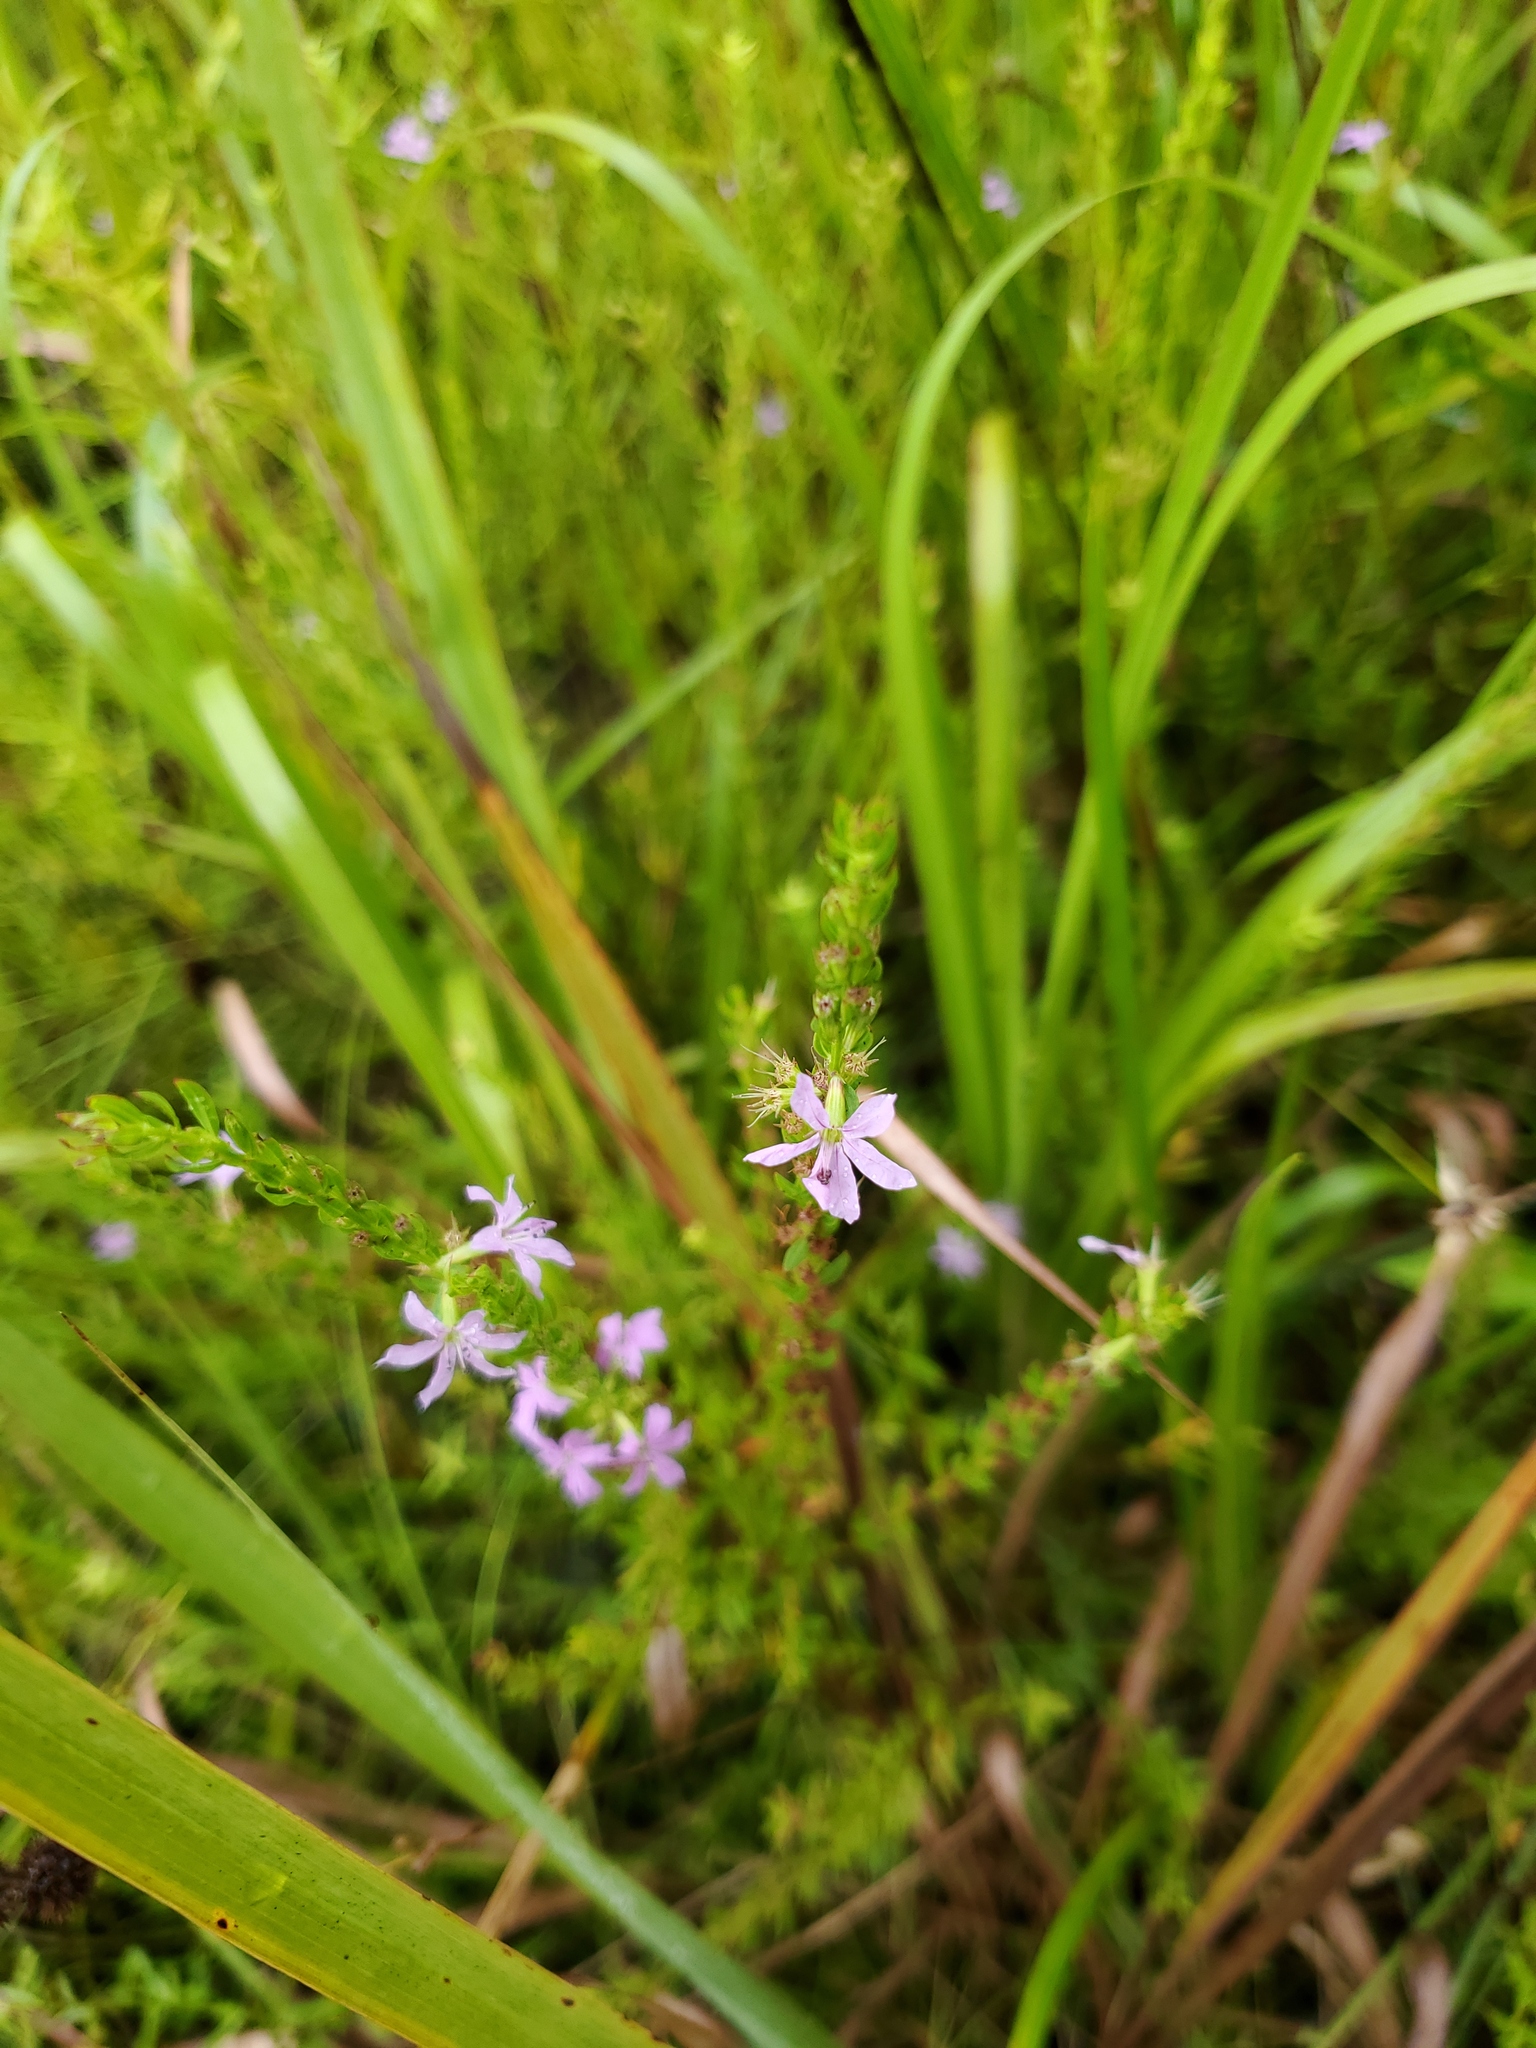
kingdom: Plantae
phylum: Tracheophyta
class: Magnoliopsida
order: Myrtales
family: Lythraceae
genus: Lythrum
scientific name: Lythrum alatum
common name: Winged loosestrife
